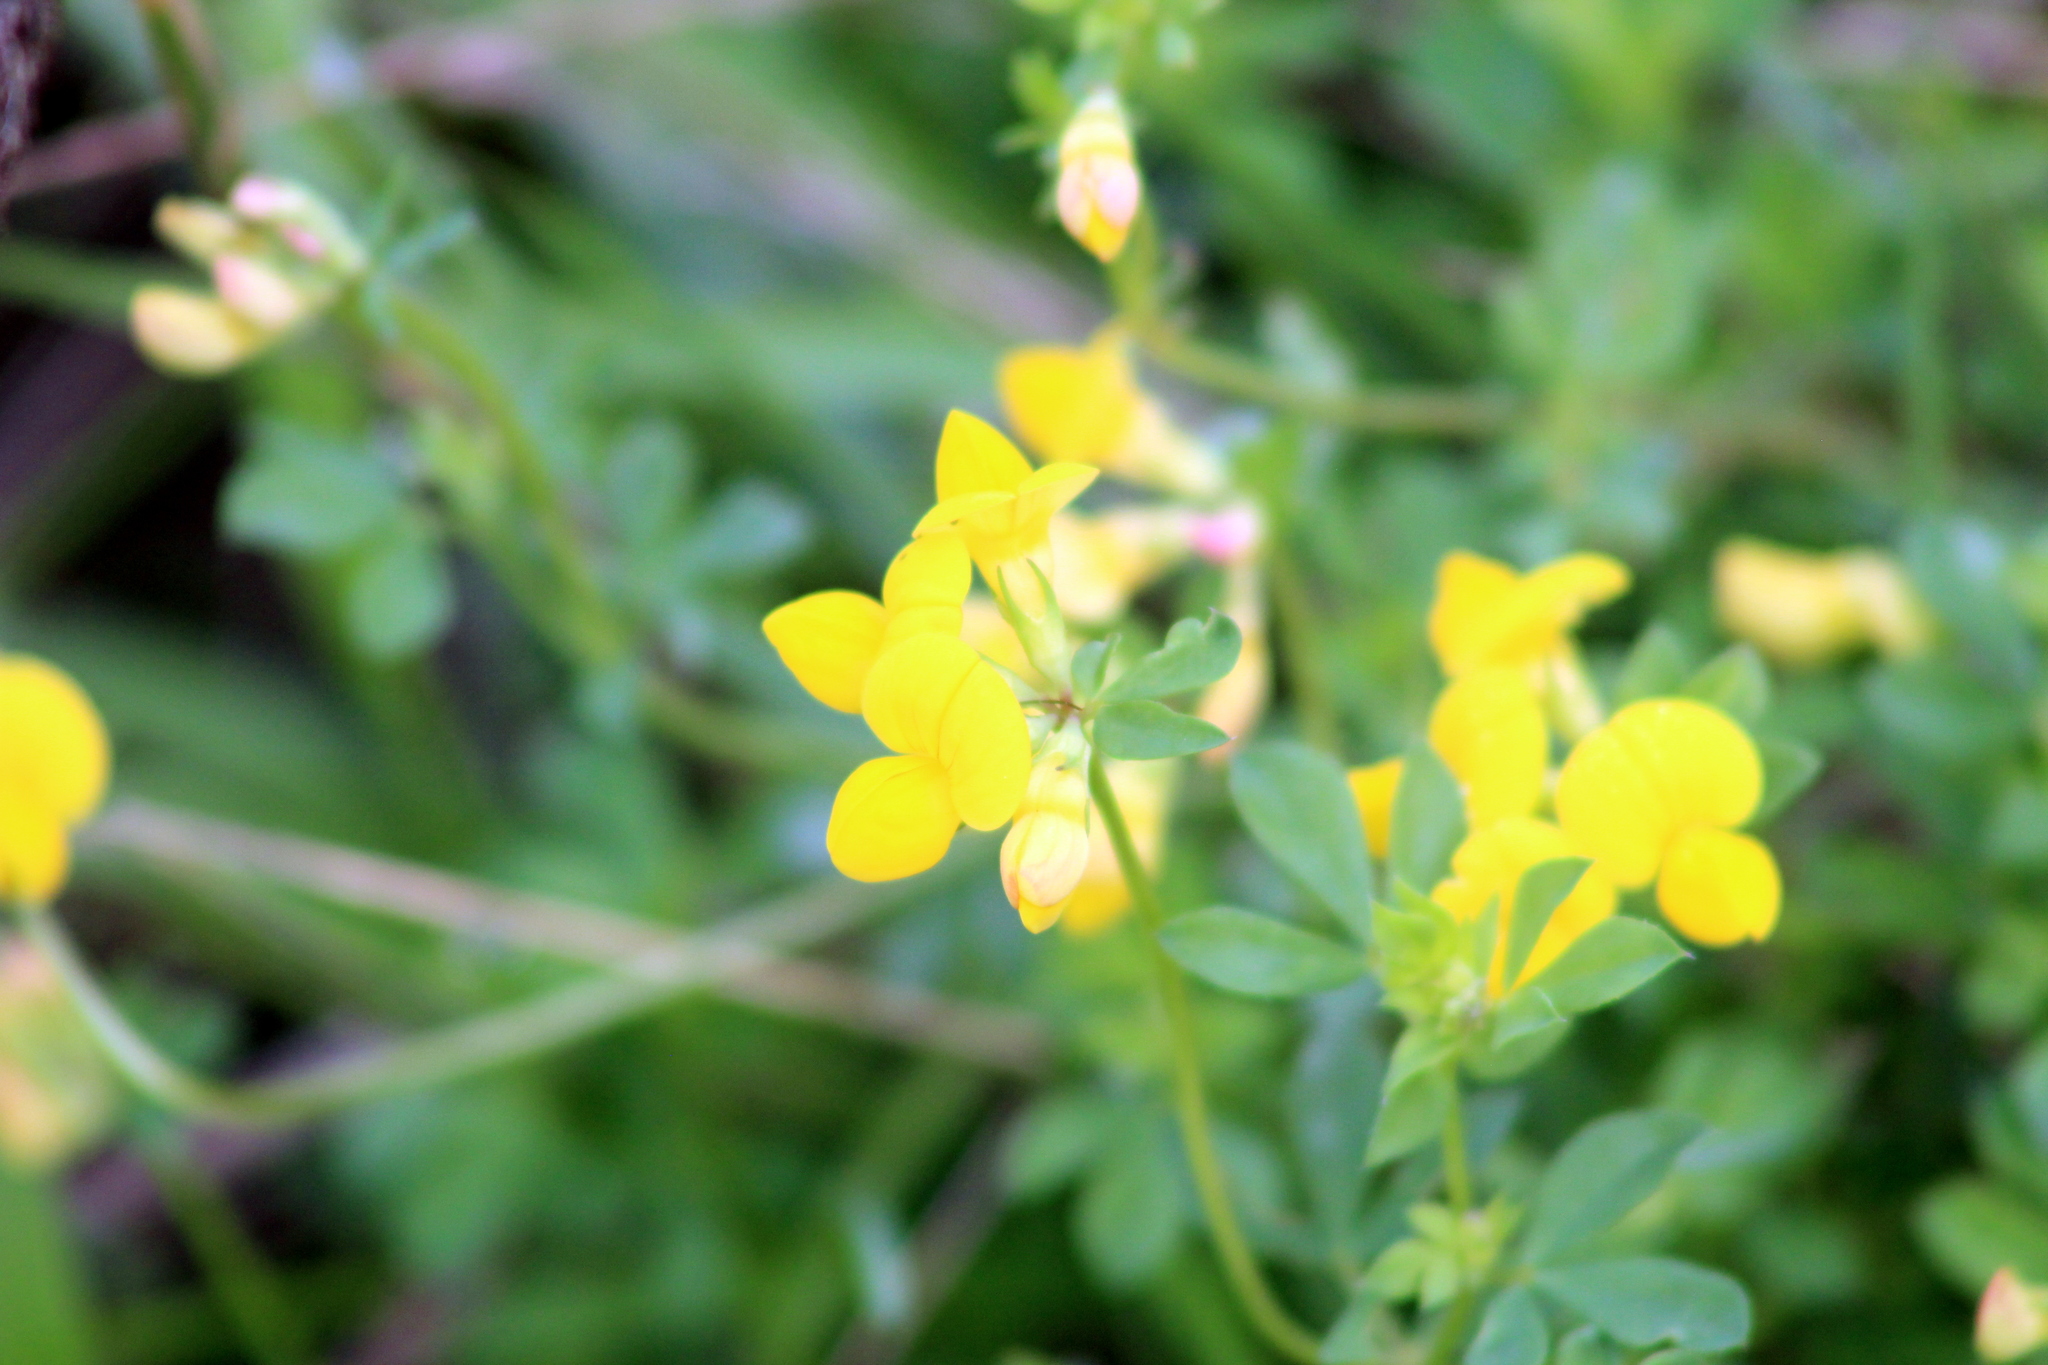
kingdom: Plantae
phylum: Tracheophyta
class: Magnoliopsida
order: Fabales
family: Fabaceae
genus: Lotus
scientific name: Lotus corniculatus
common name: Common bird's-foot-trefoil
